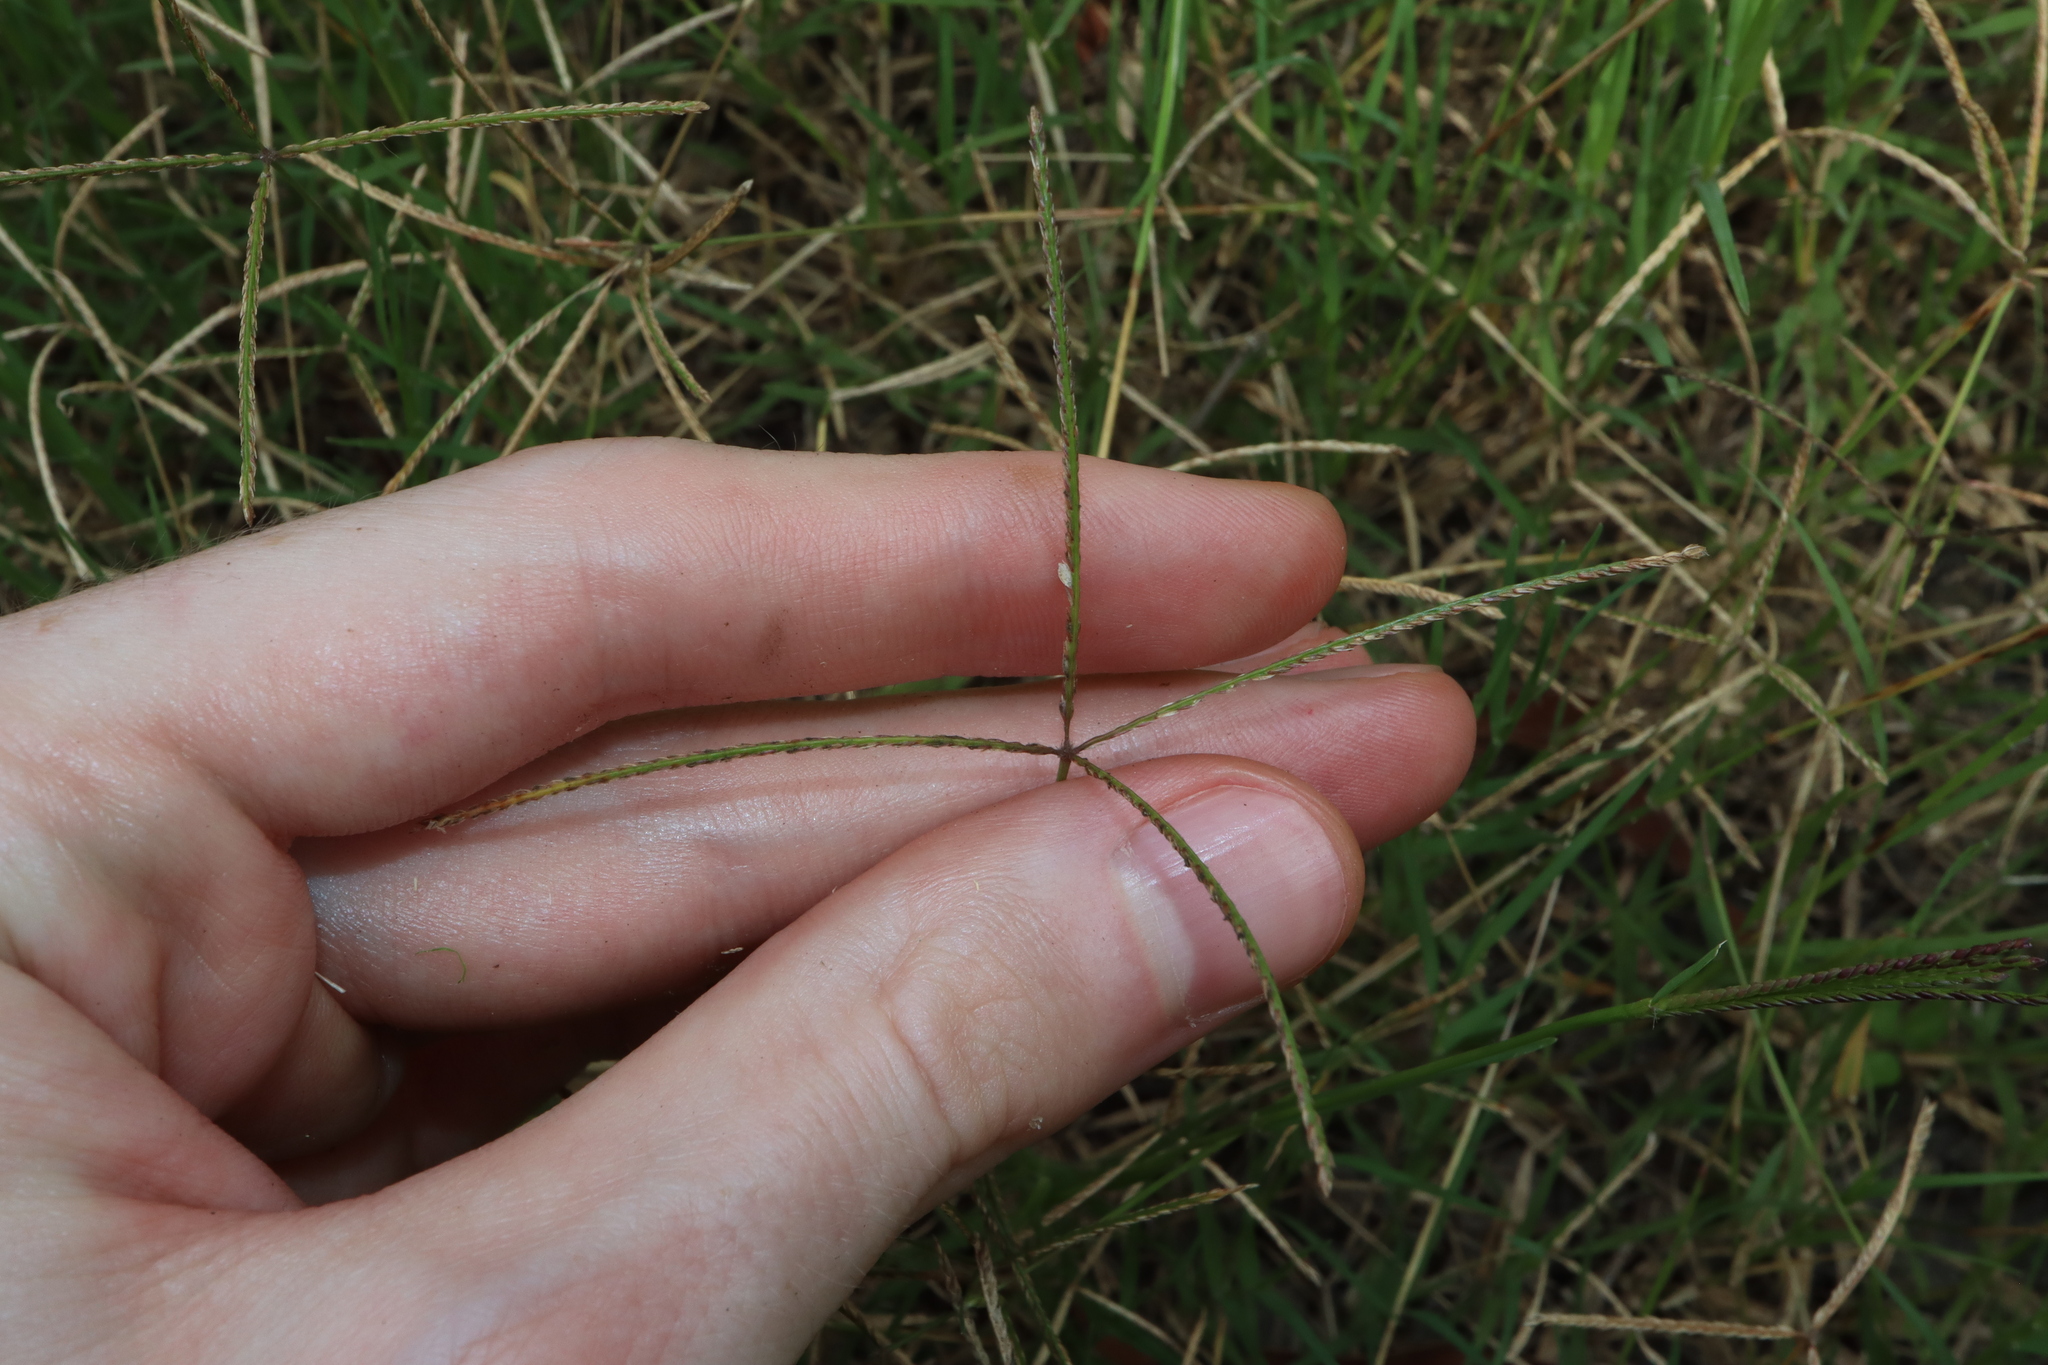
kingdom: Plantae
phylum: Tracheophyta
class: Liliopsida
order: Poales
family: Poaceae
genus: Cynodon
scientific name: Cynodon dactylon
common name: Bermuda grass
